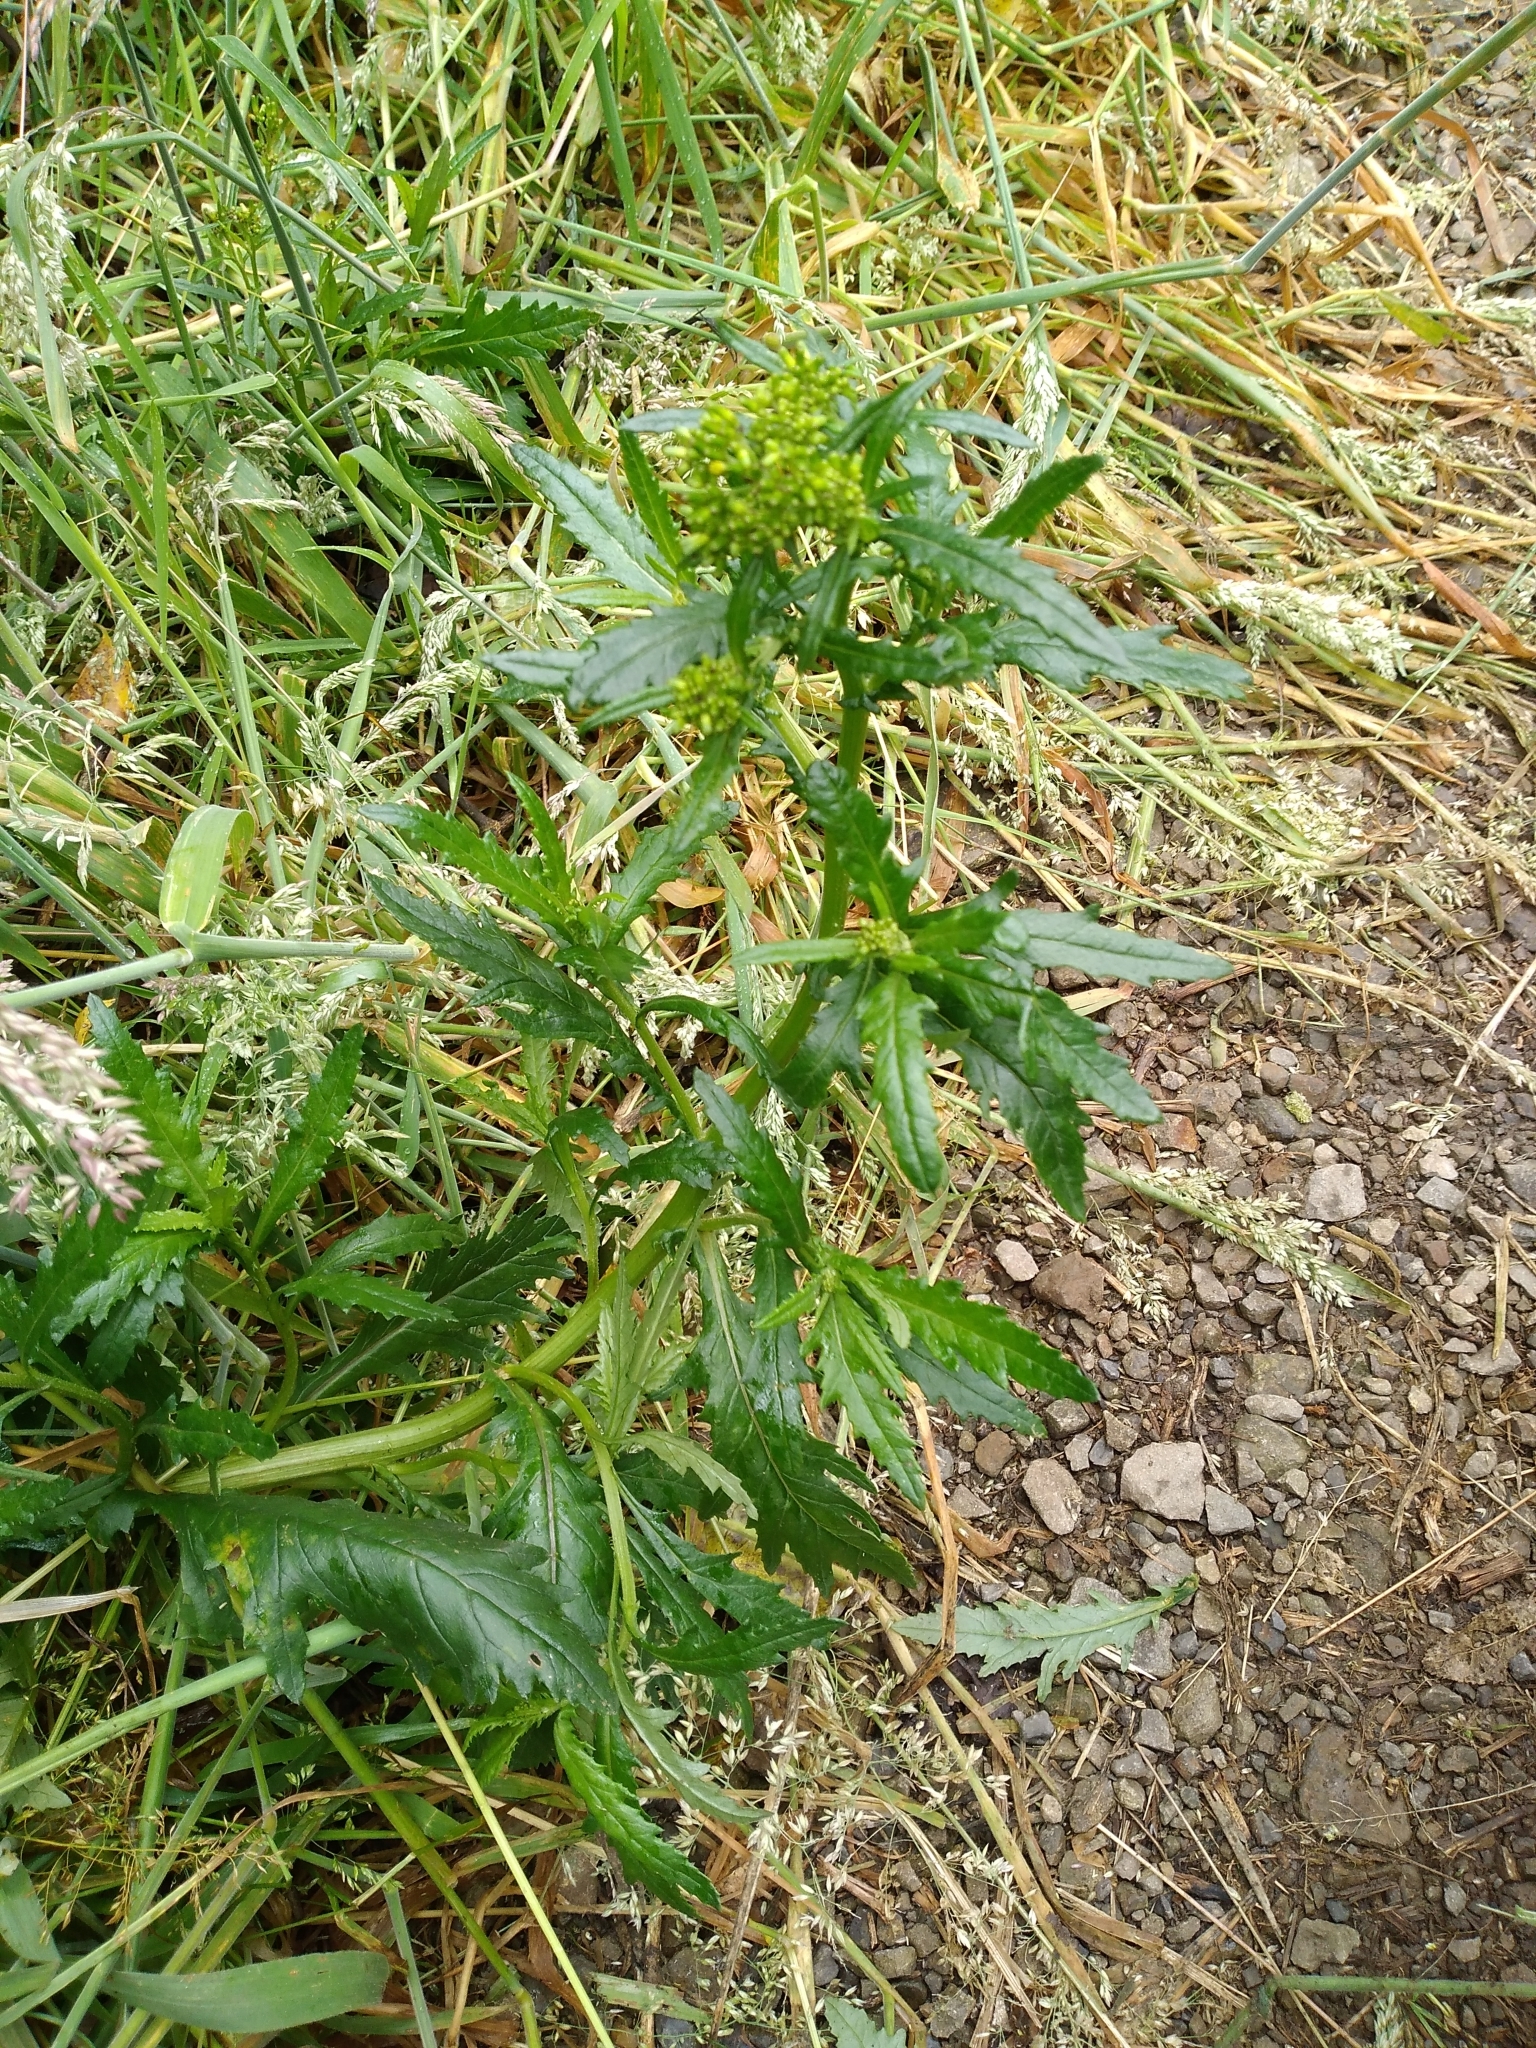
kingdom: Plantae
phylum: Tracheophyta
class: Magnoliopsida
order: Asterales
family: Asteraceae
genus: Senecio
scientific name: Senecio biserratus
